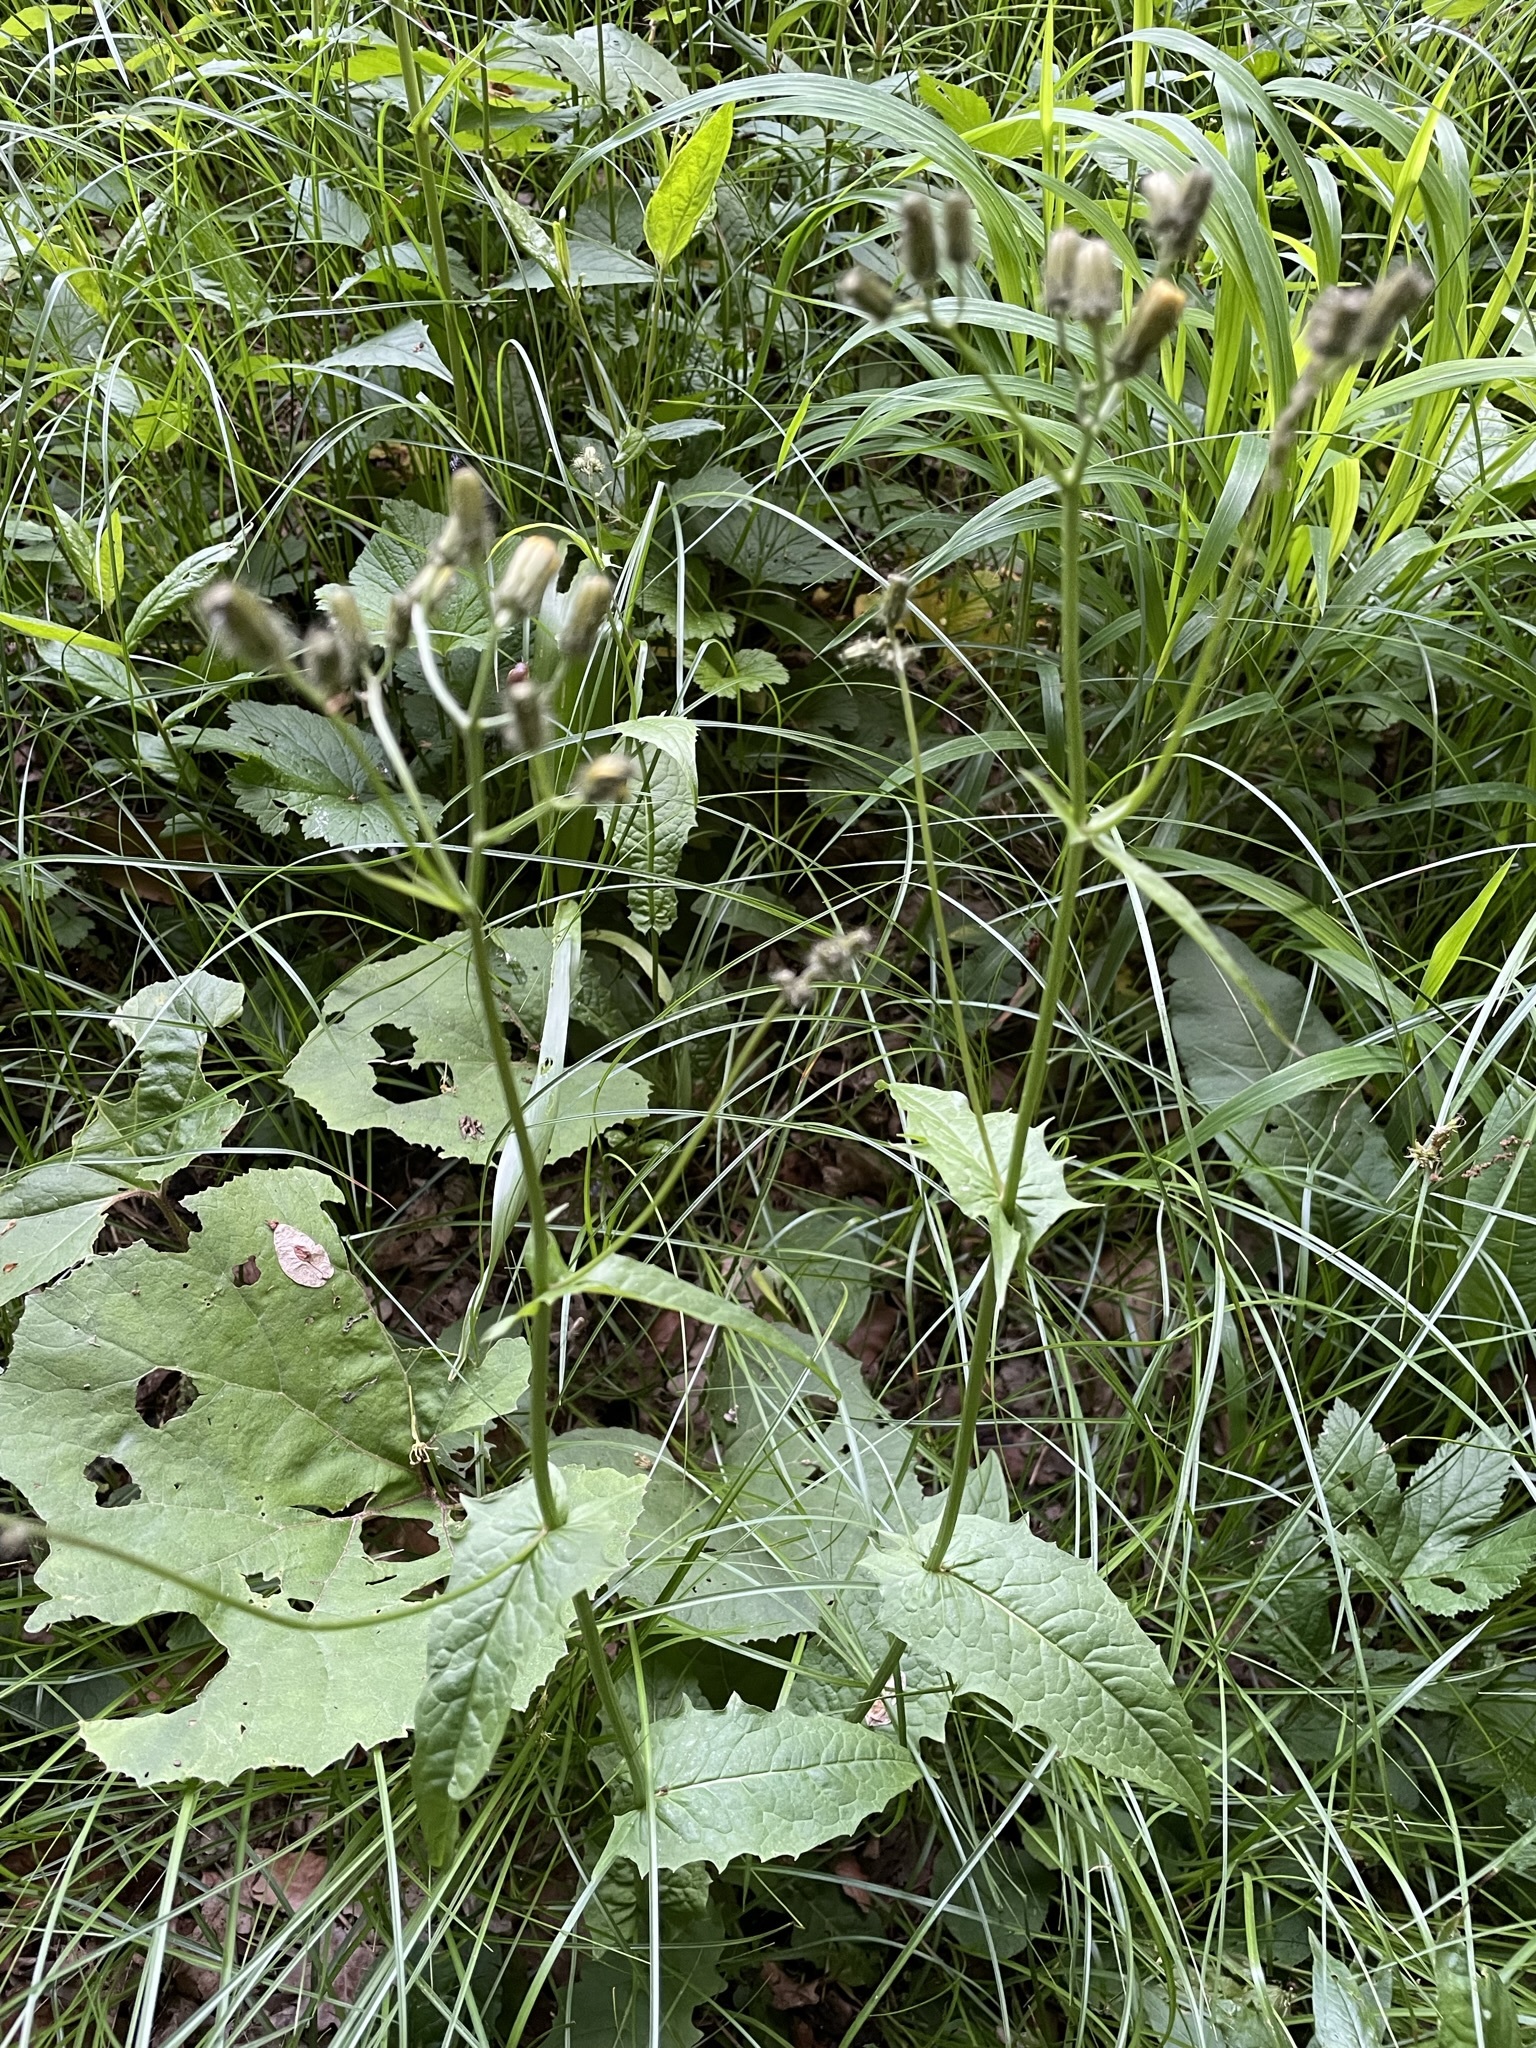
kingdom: Plantae
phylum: Tracheophyta
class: Magnoliopsida
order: Asterales
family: Asteraceae
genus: Crepis
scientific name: Crepis paludosa
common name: Marsh hawk's-beard
